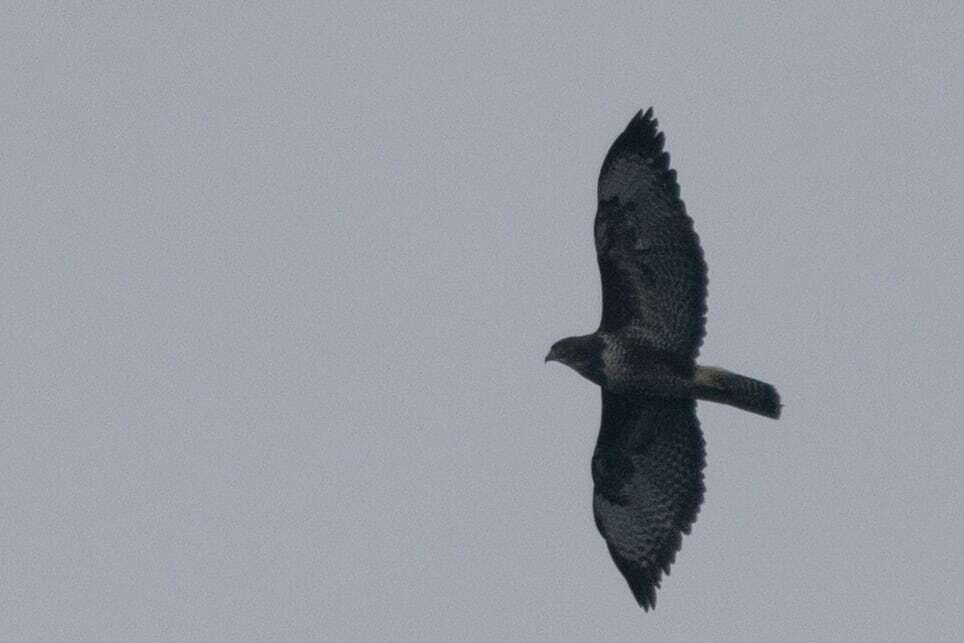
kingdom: Animalia
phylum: Chordata
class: Aves
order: Accipitriformes
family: Accipitridae
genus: Buteo
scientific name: Buteo buteo
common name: Common buzzard
